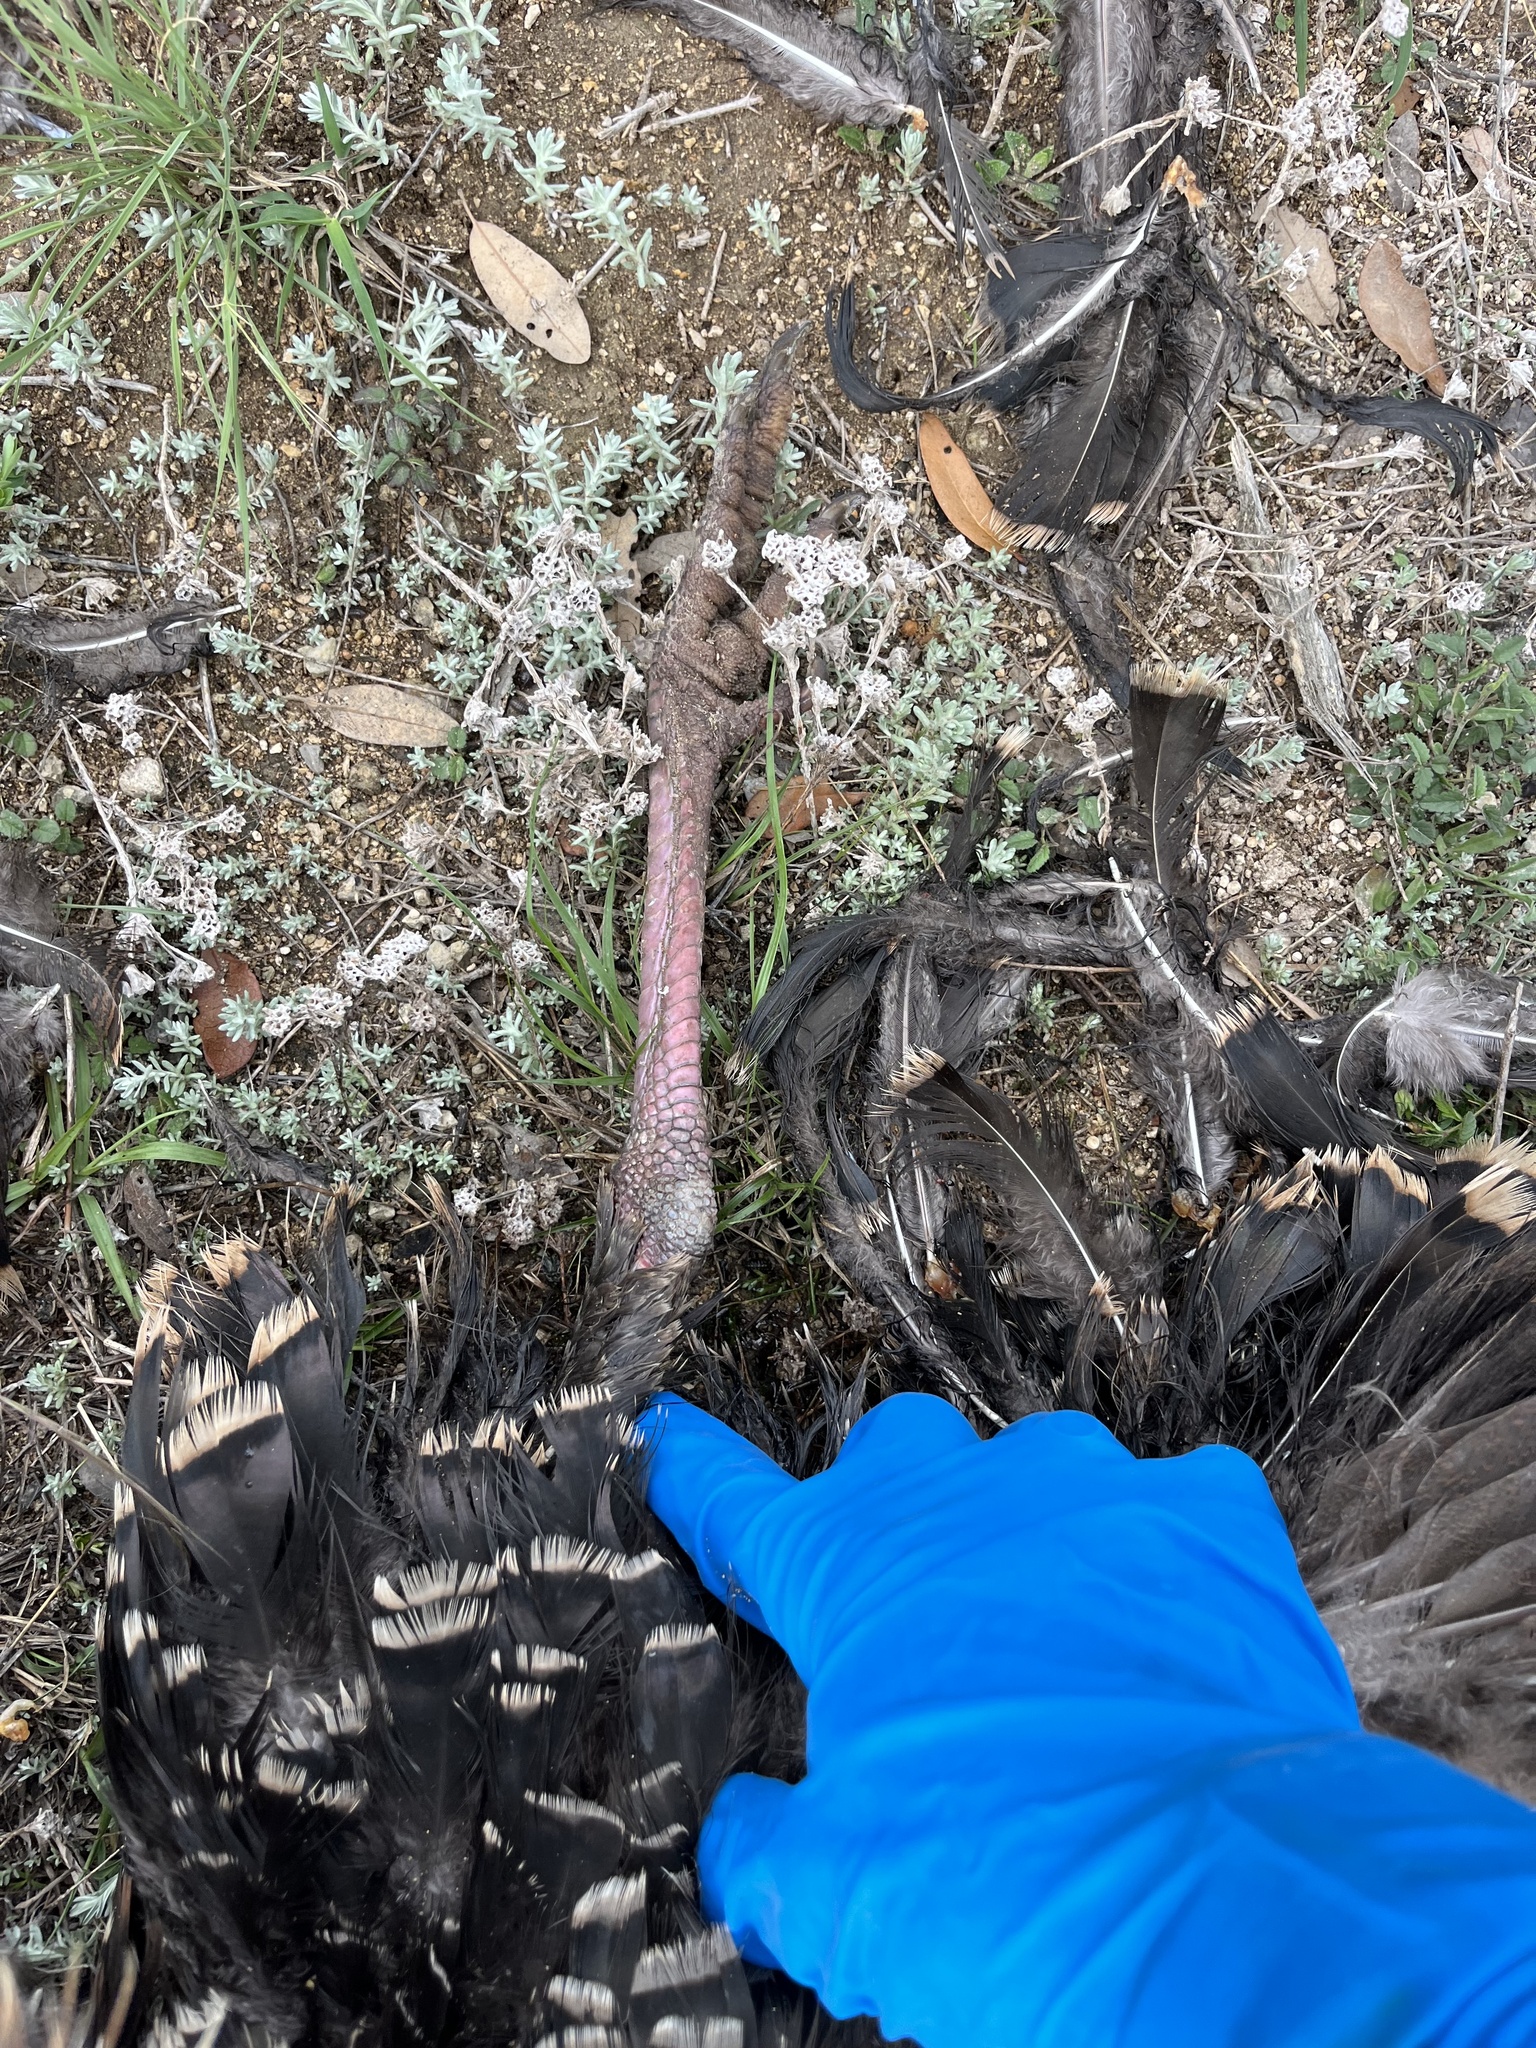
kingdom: Animalia
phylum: Chordata
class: Aves
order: Galliformes
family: Phasianidae
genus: Meleagris
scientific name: Meleagris gallopavo
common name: Wild turkey
